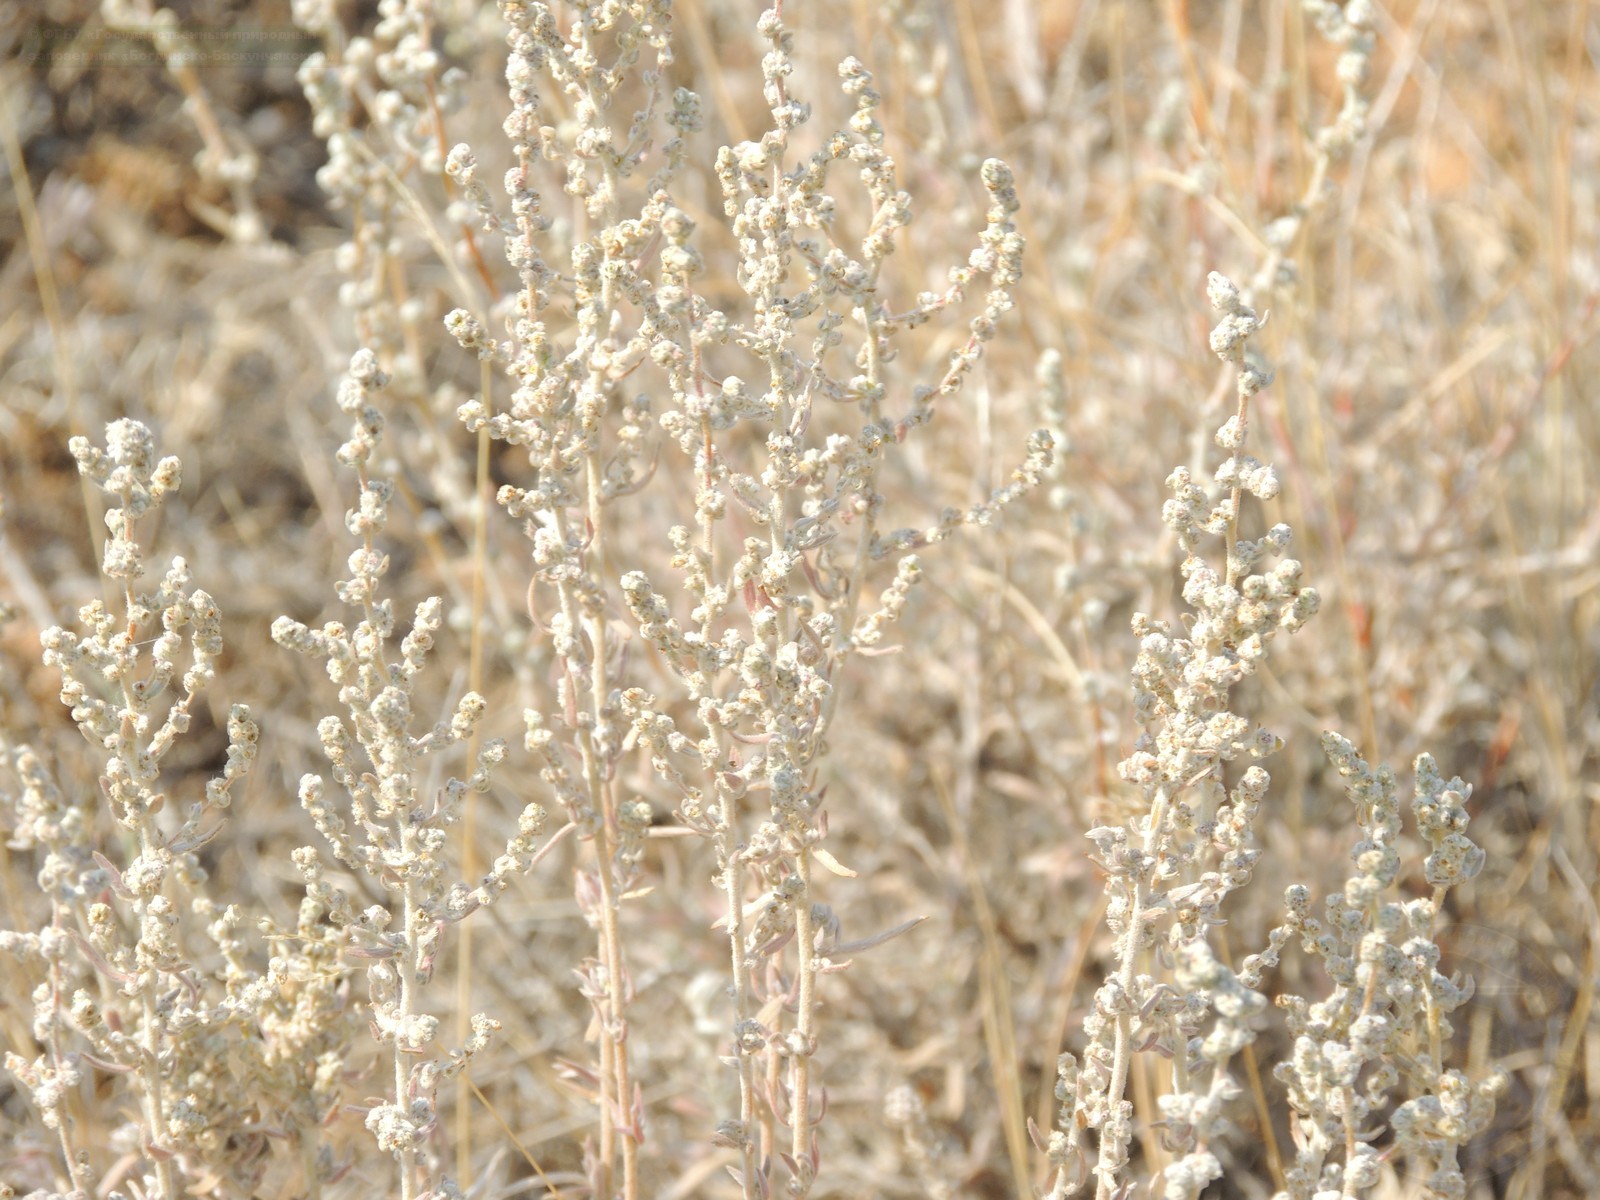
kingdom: Plantae
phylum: Tracheophyta
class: Magnoliopsida
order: Caryophyllales
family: Amaranthaceae
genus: Bassia
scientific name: Bassia prostrata
